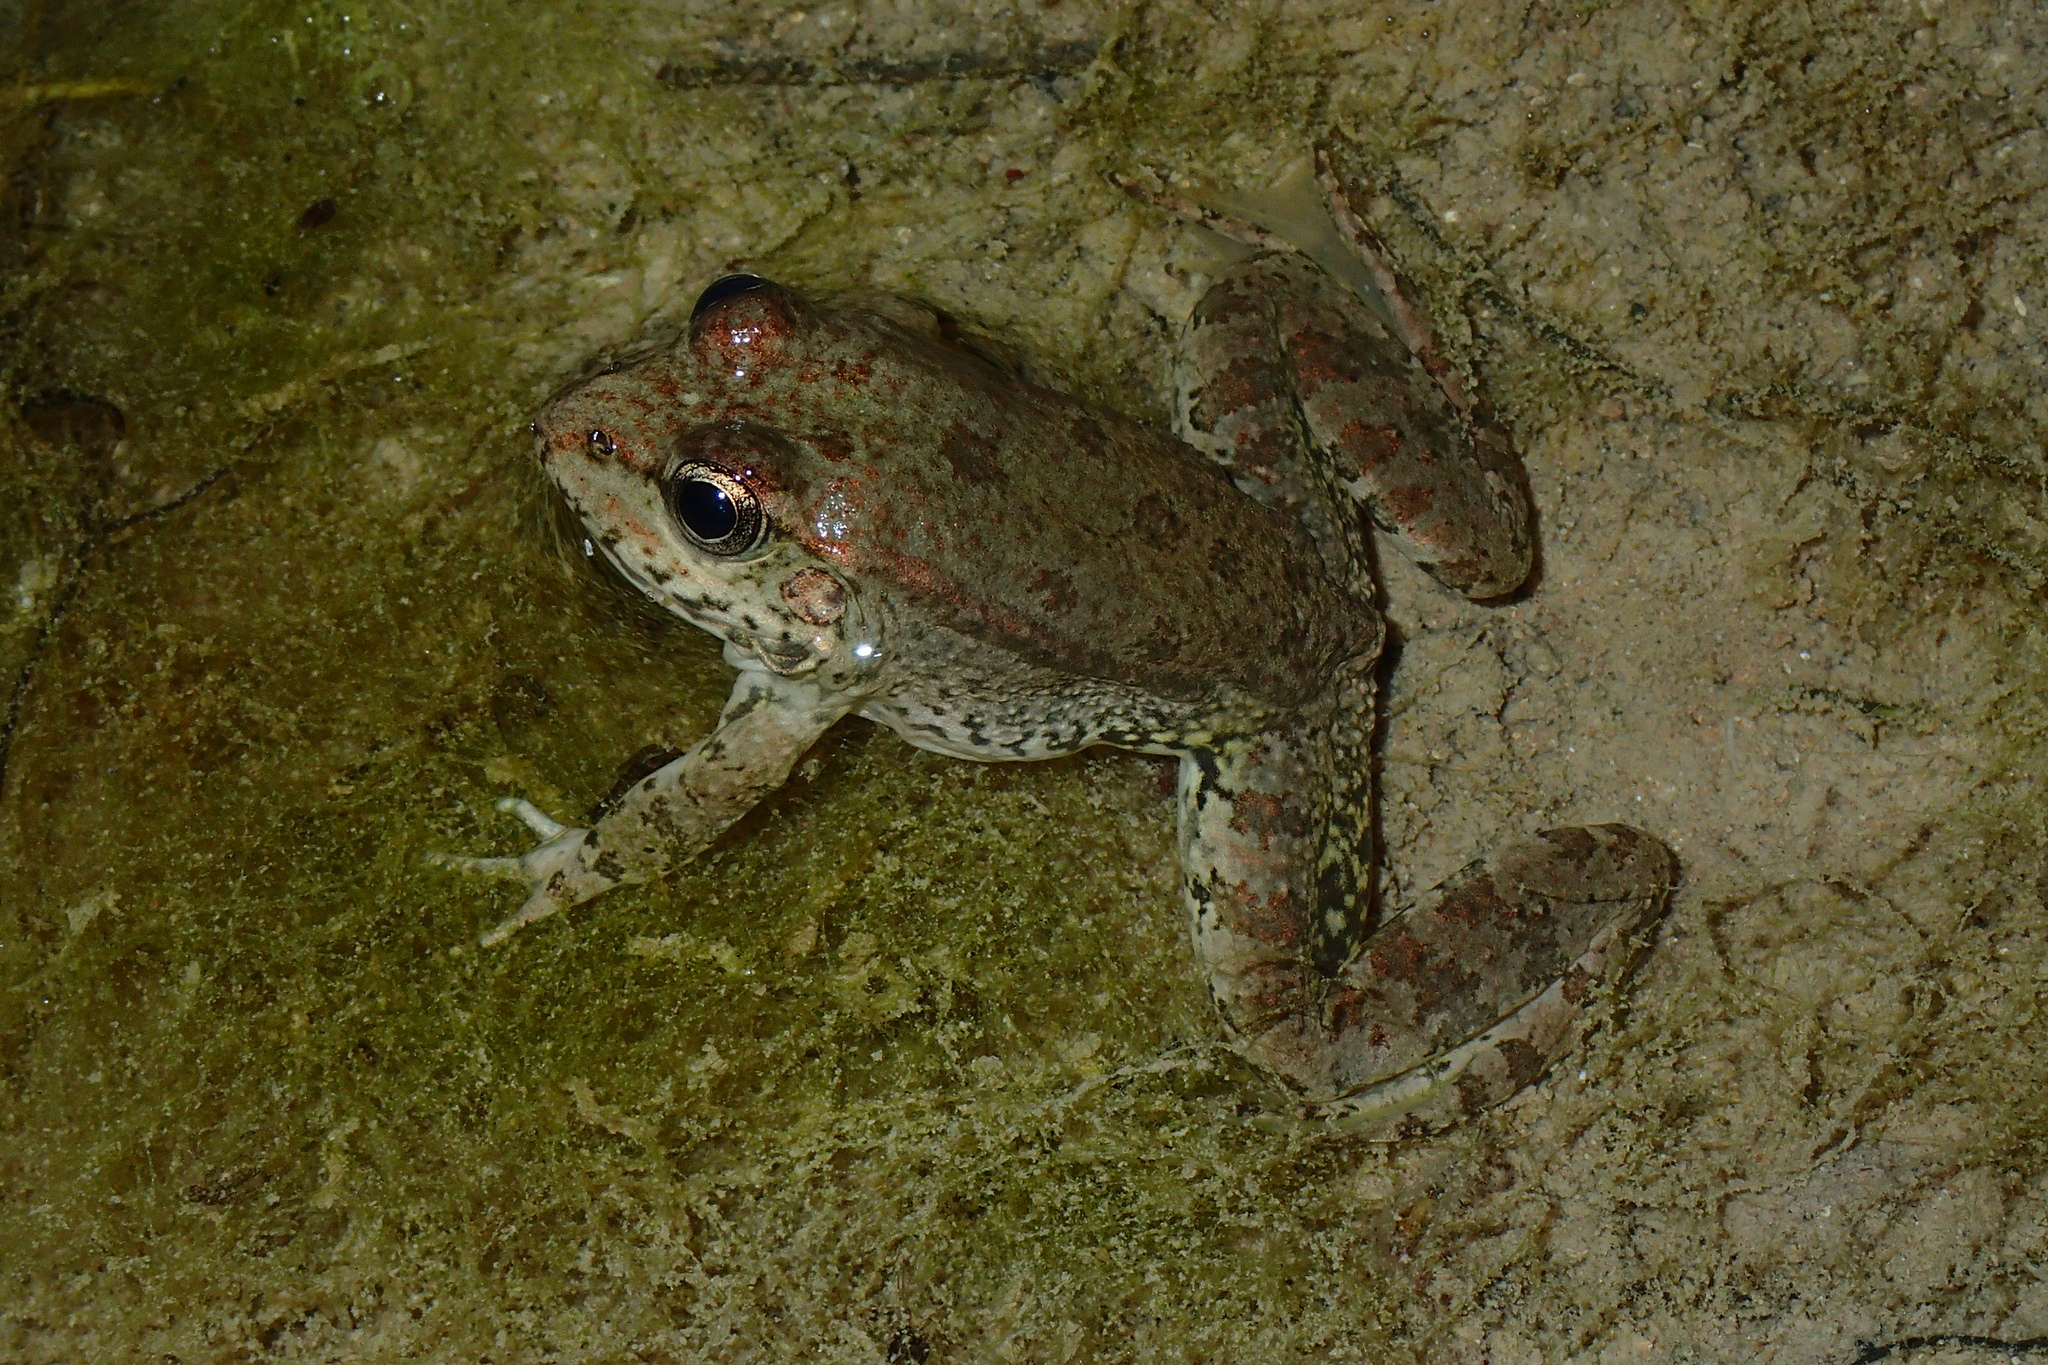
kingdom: Animalia
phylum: Chordata
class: Amphibia
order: Anura
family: Ranidae
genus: Pelophylax
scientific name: Pelophylax ridibundus
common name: Marsh frog
